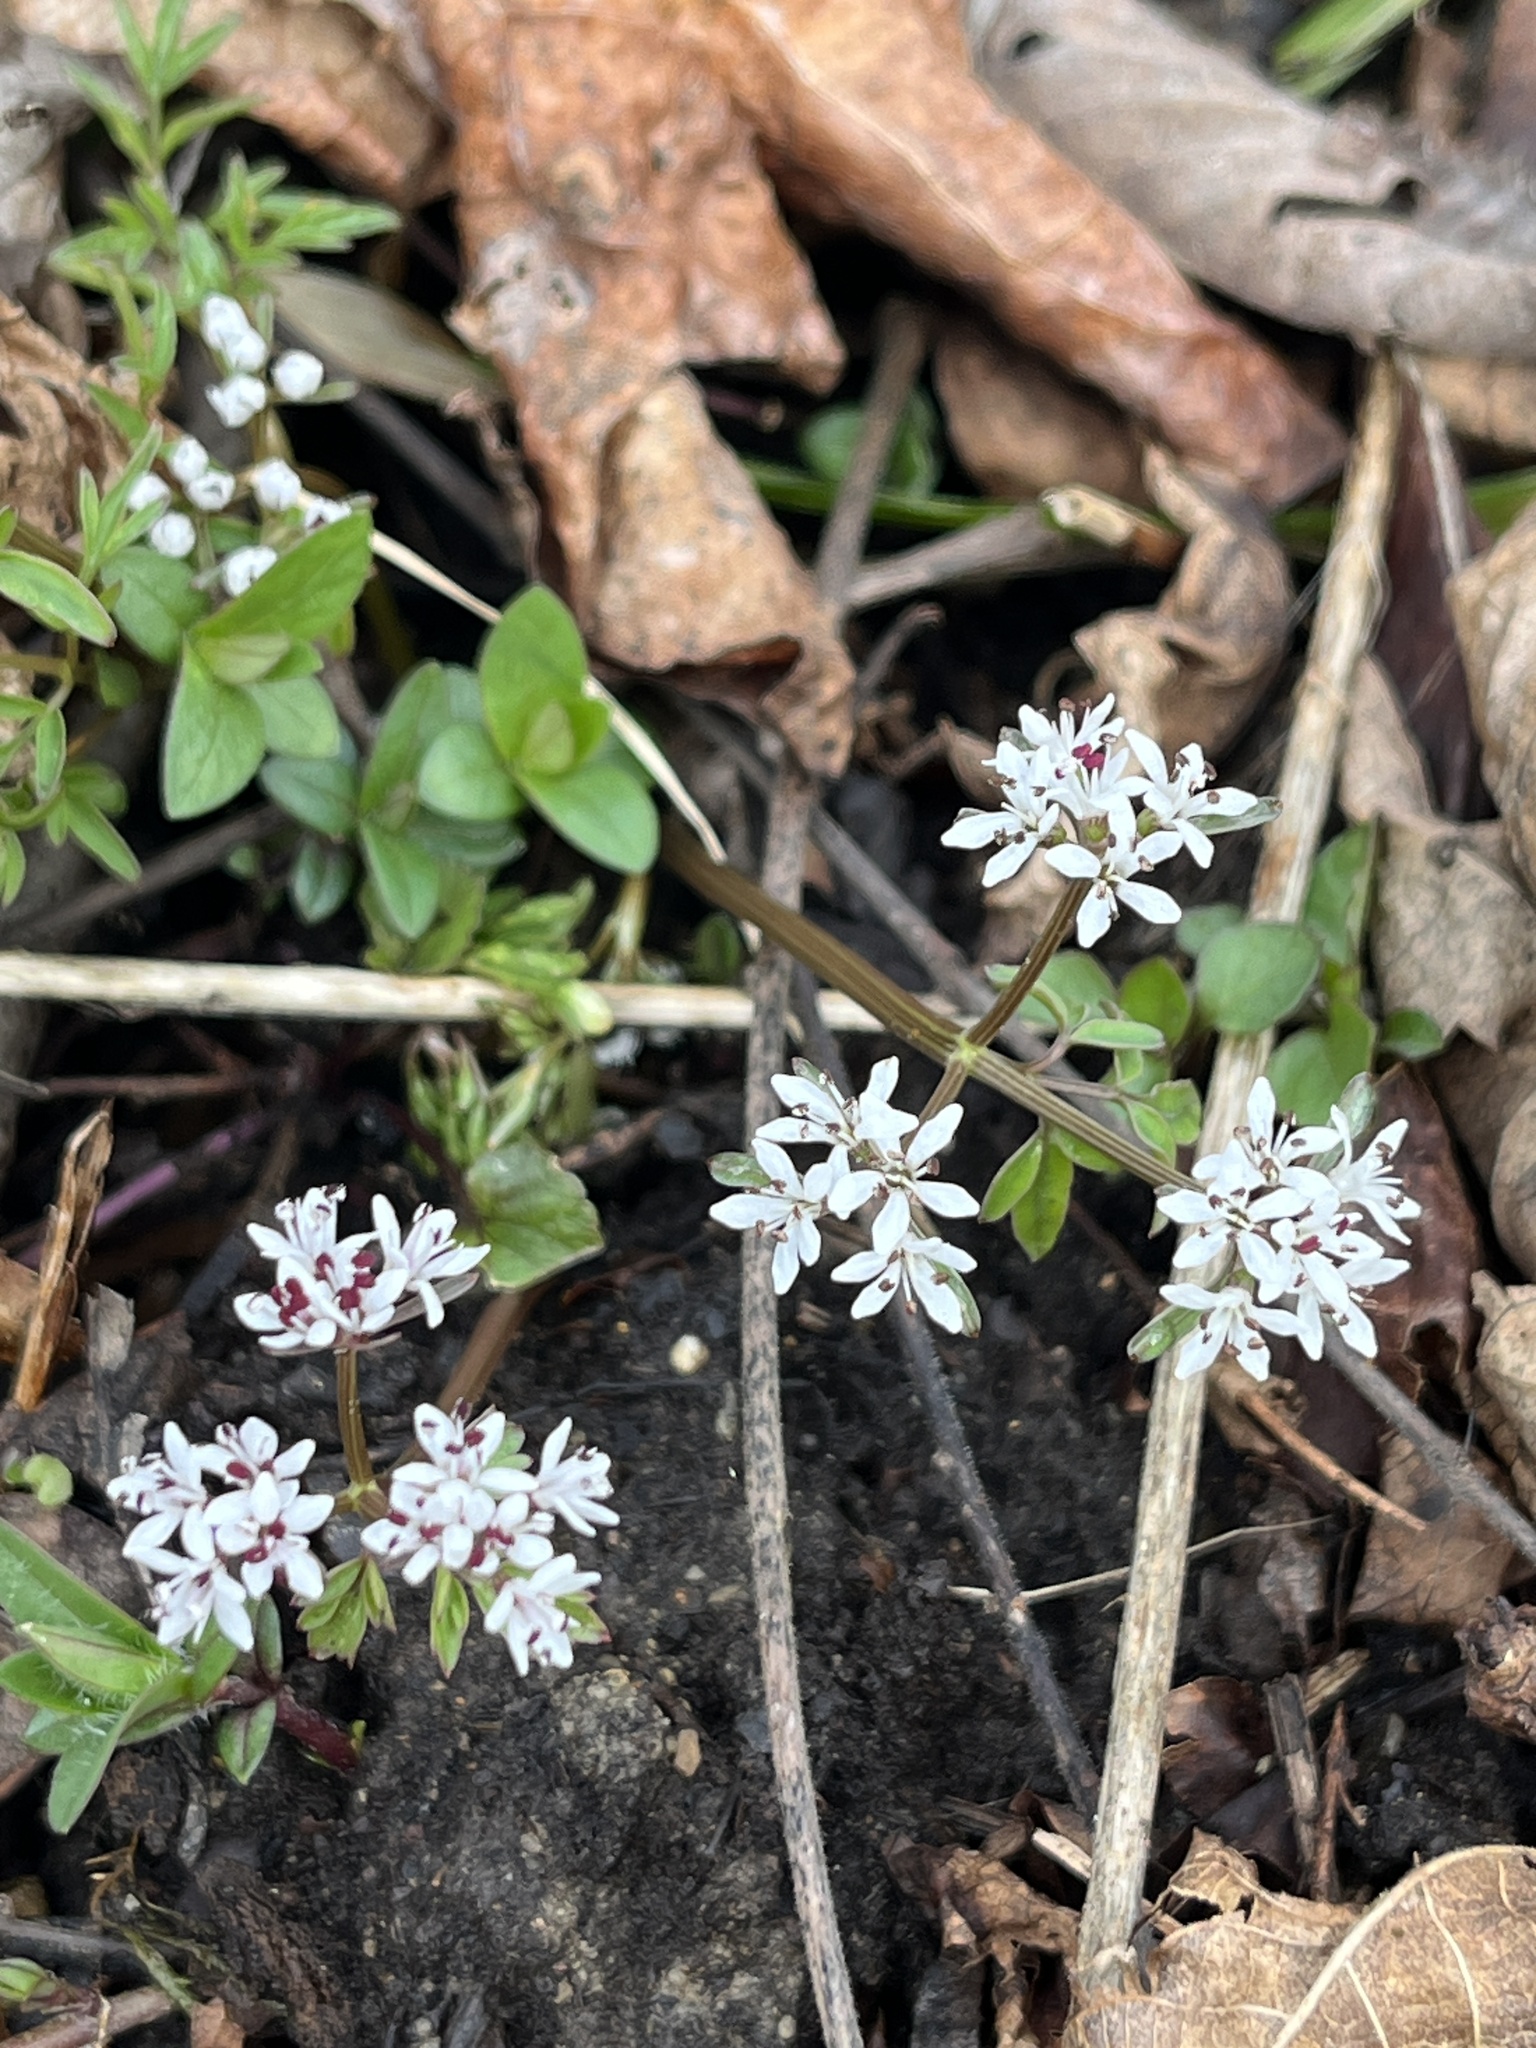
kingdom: Plantae
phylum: Tracheophyta
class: Magnoliopsida
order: Apiales
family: Apiaceae
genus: Erigenia
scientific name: Erigenia bulbosa
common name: Pepper-and-salt
